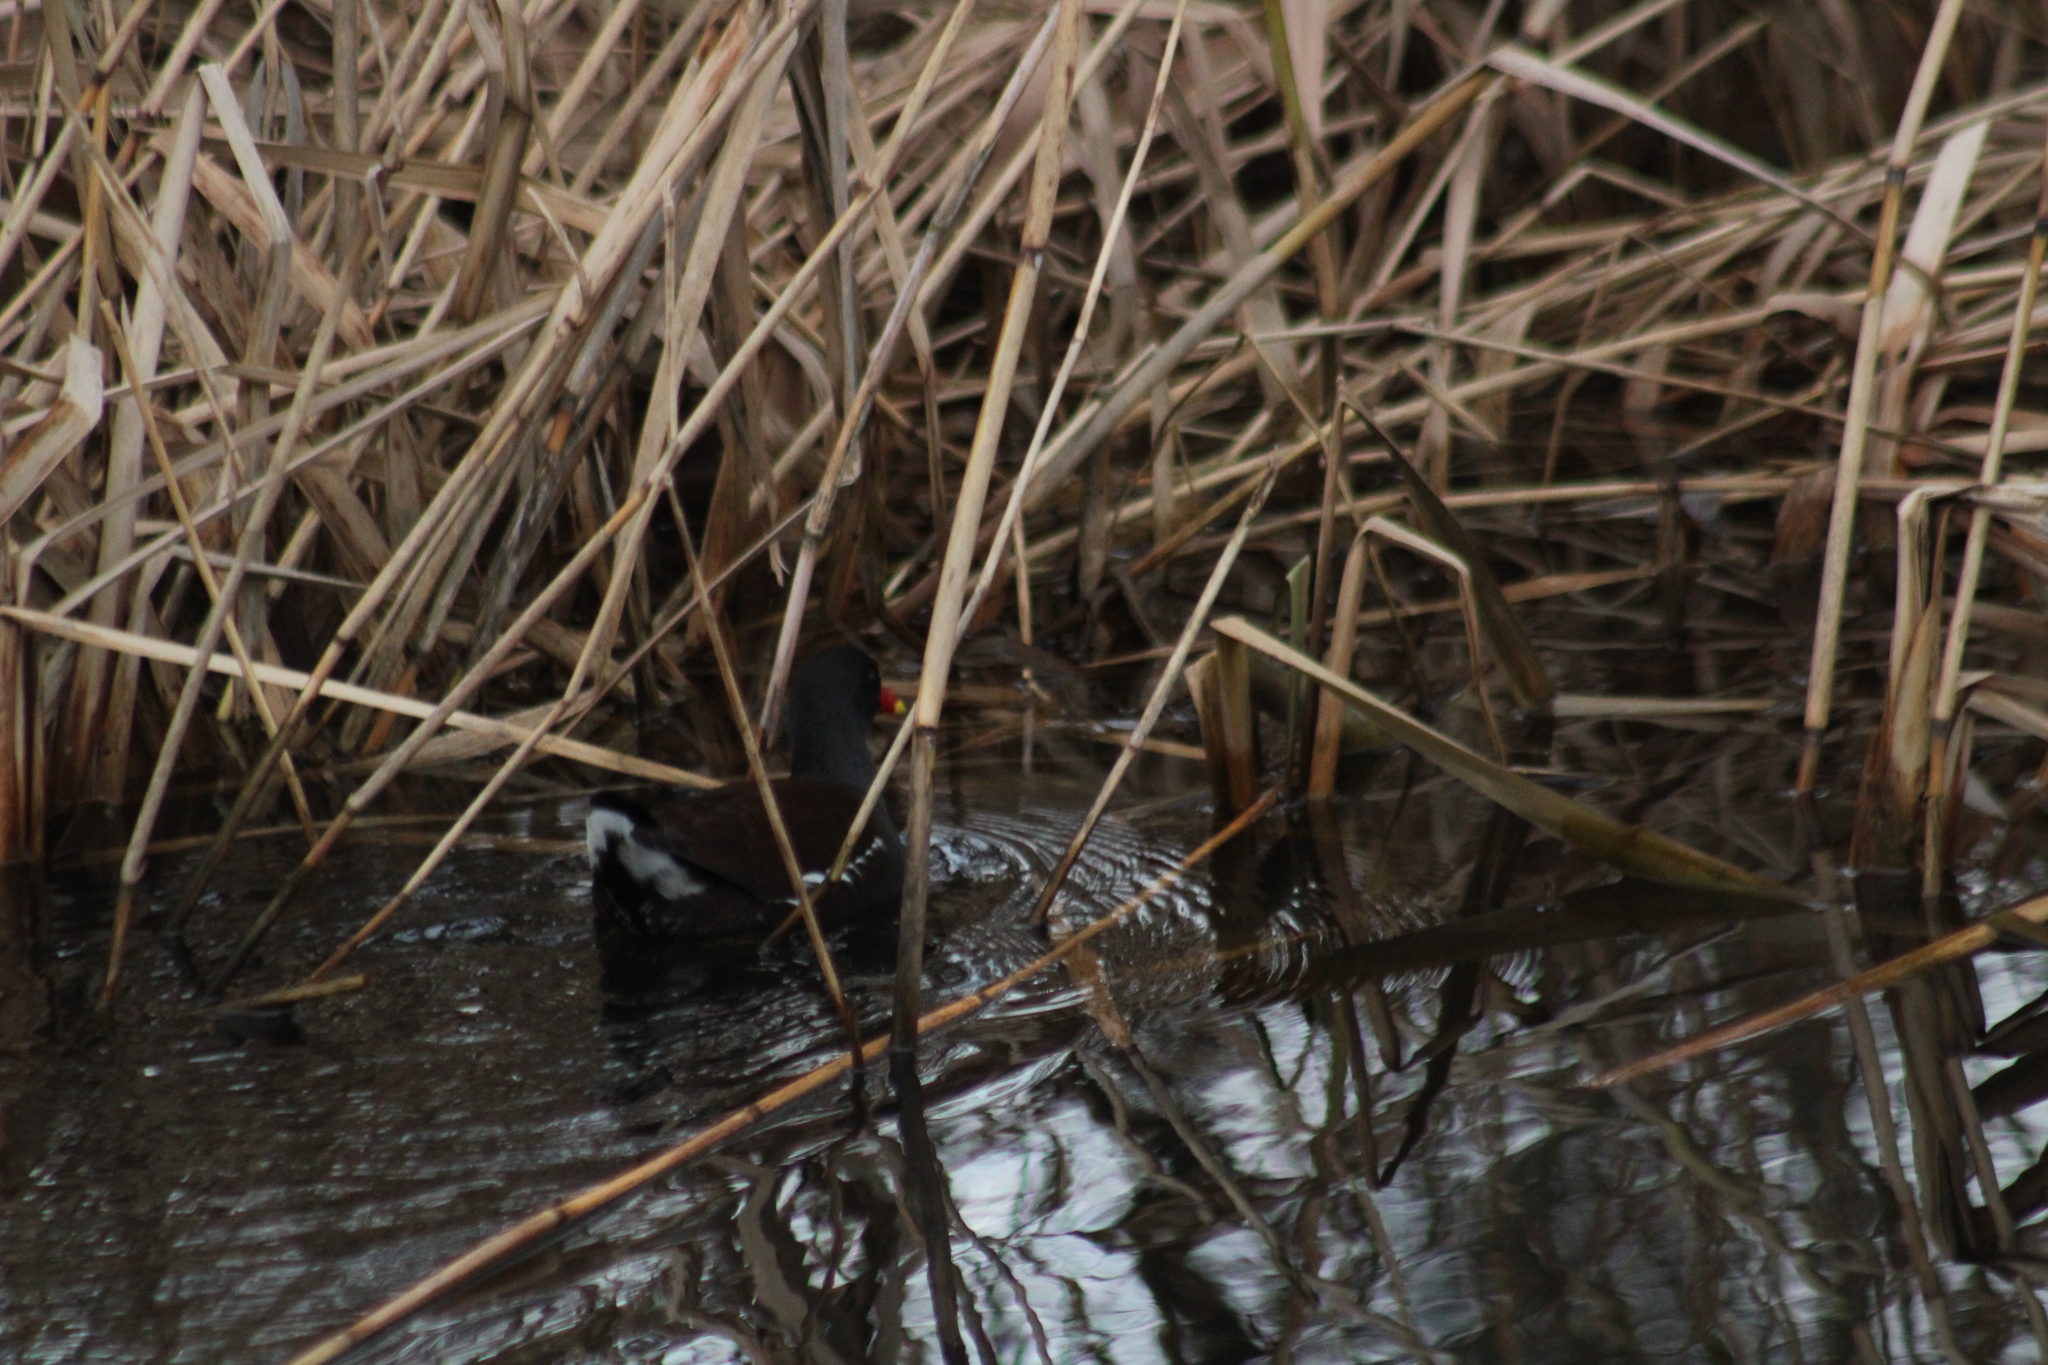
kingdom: Animalia
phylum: Chordata
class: Aves
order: Gruiformes
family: Rallidae
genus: Gallinula
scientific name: Gallinula chloropus
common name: Common moorhen
